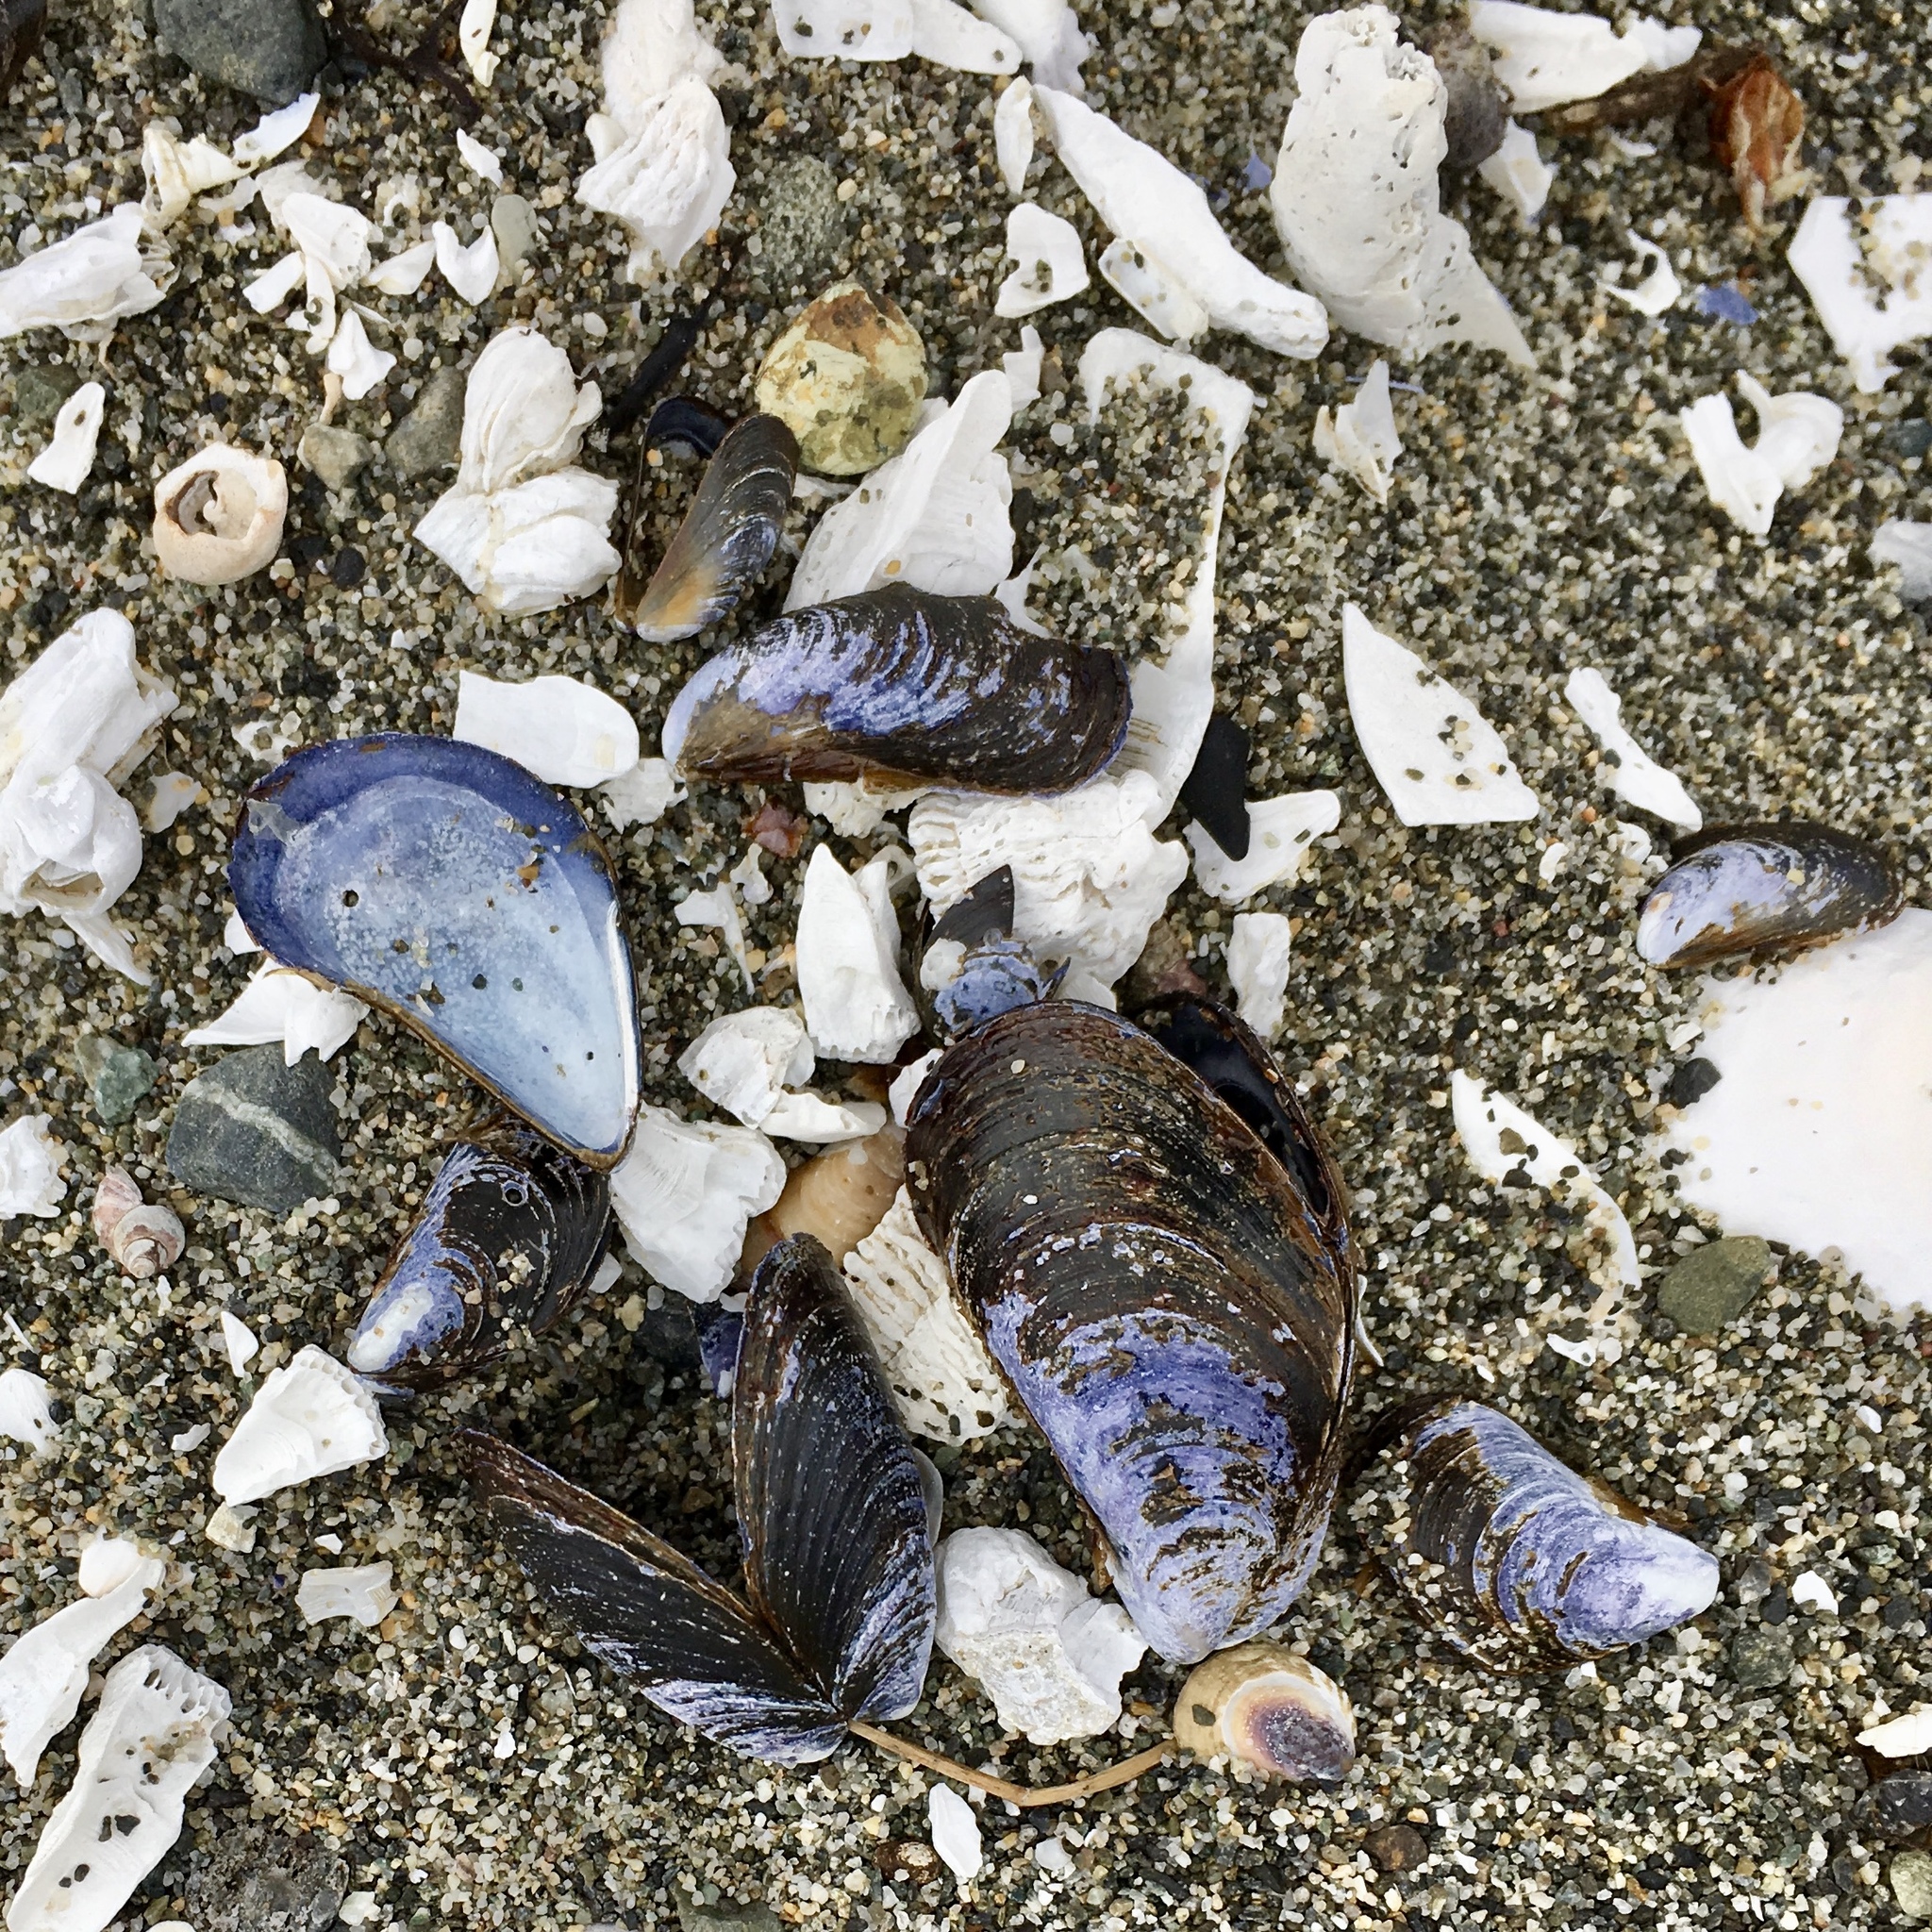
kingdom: Animalia
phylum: Mollusca
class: Bivalvia
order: Mytilida
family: Mytilidae
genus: Mytilus
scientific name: Mytilus
